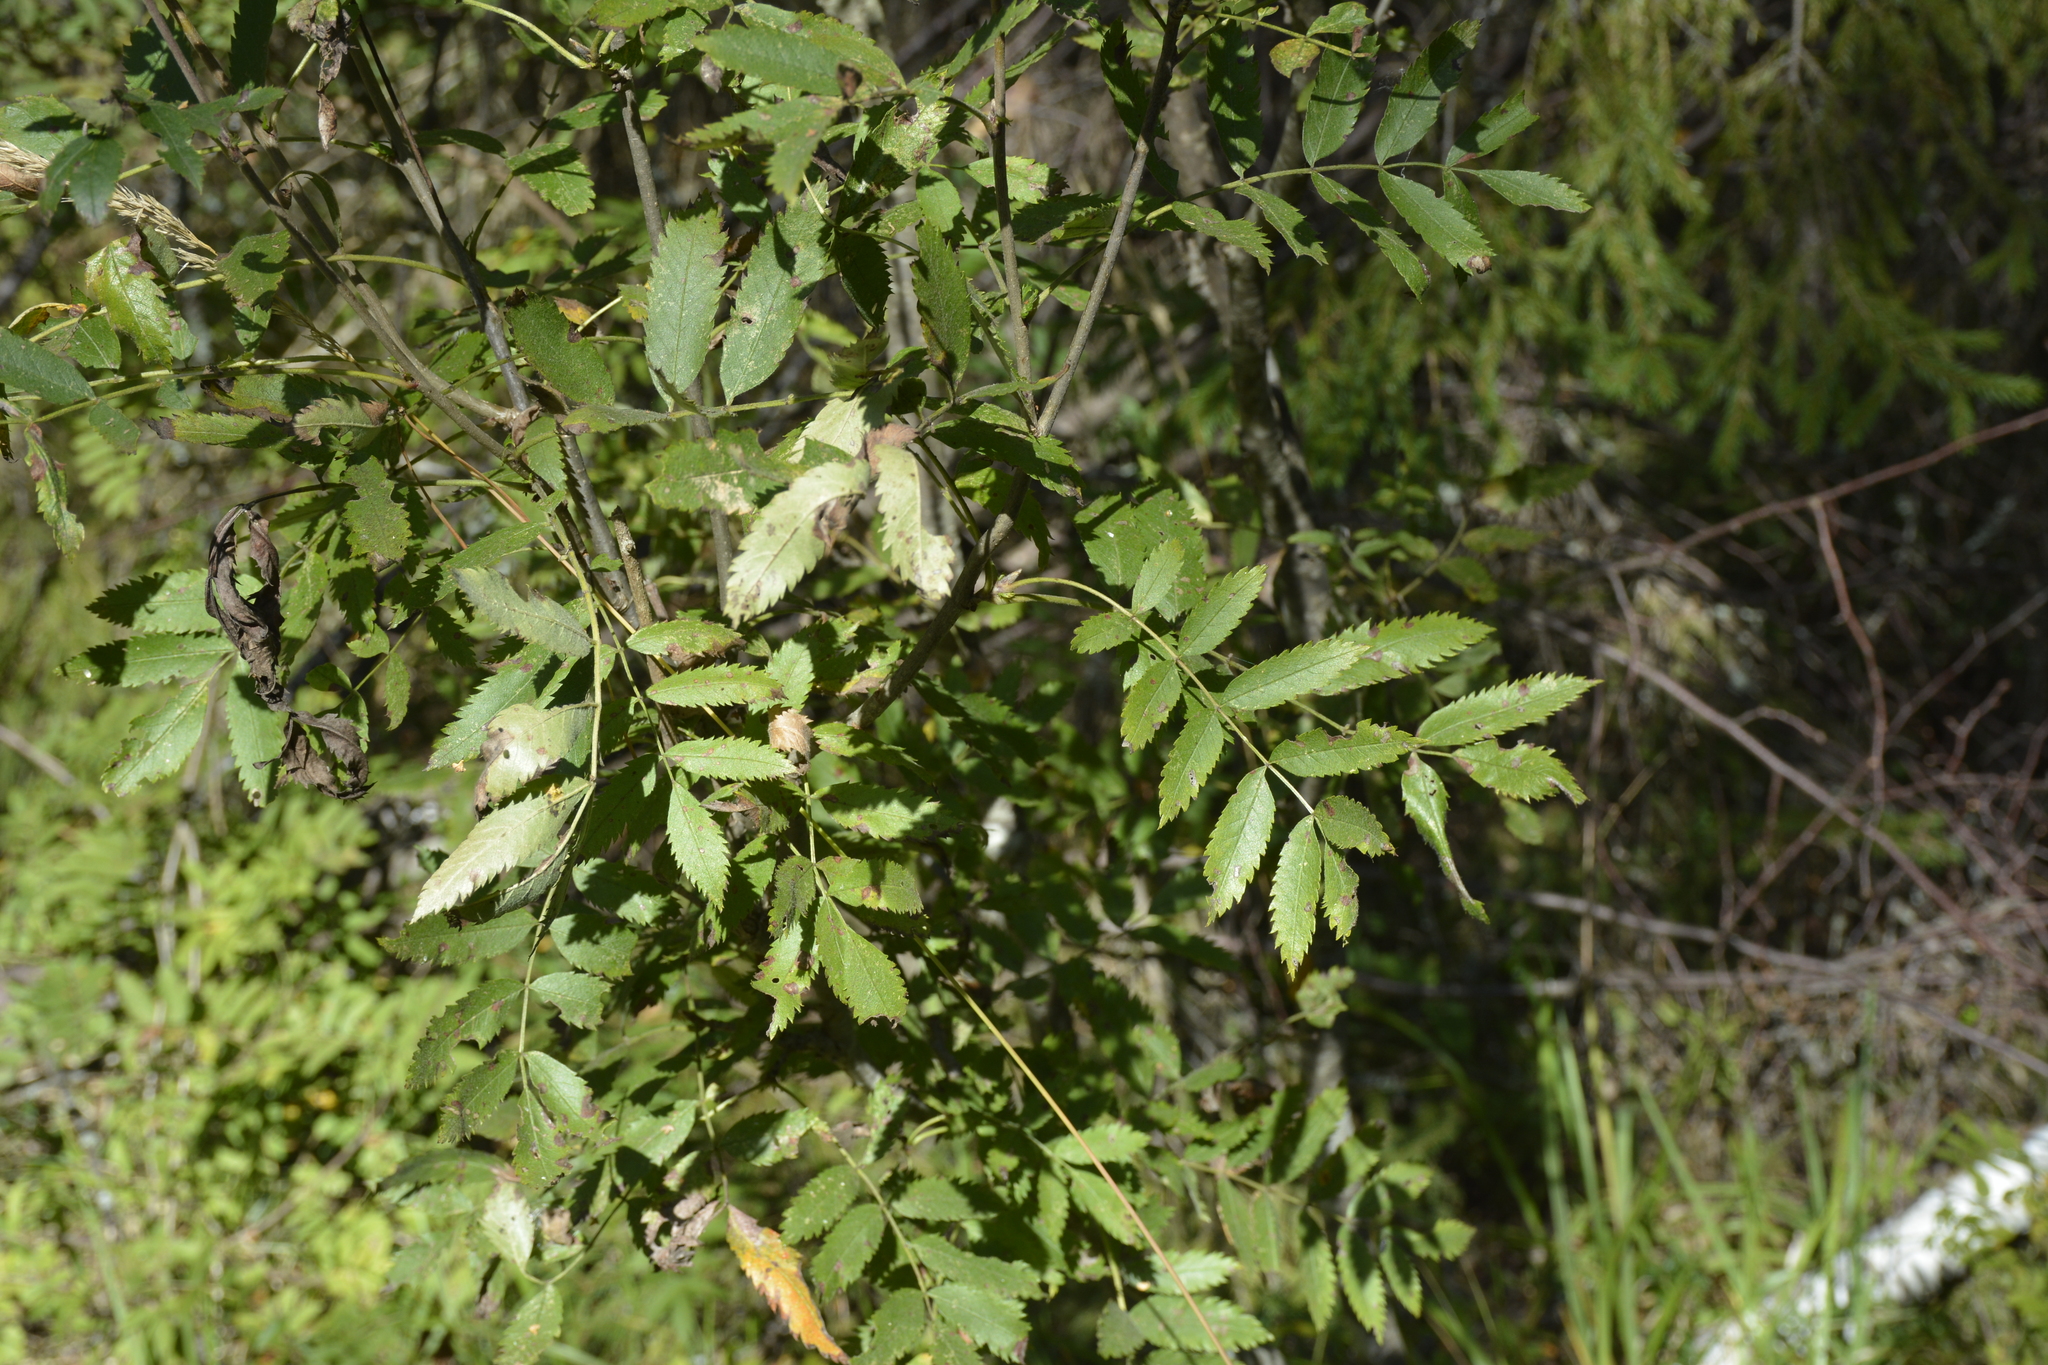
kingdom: Plantae
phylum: Tracheophyta
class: Magnoliopsida
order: Rosales
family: Rosaceae
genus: Sorbus
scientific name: Sorbus aucuparia
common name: Rowan
